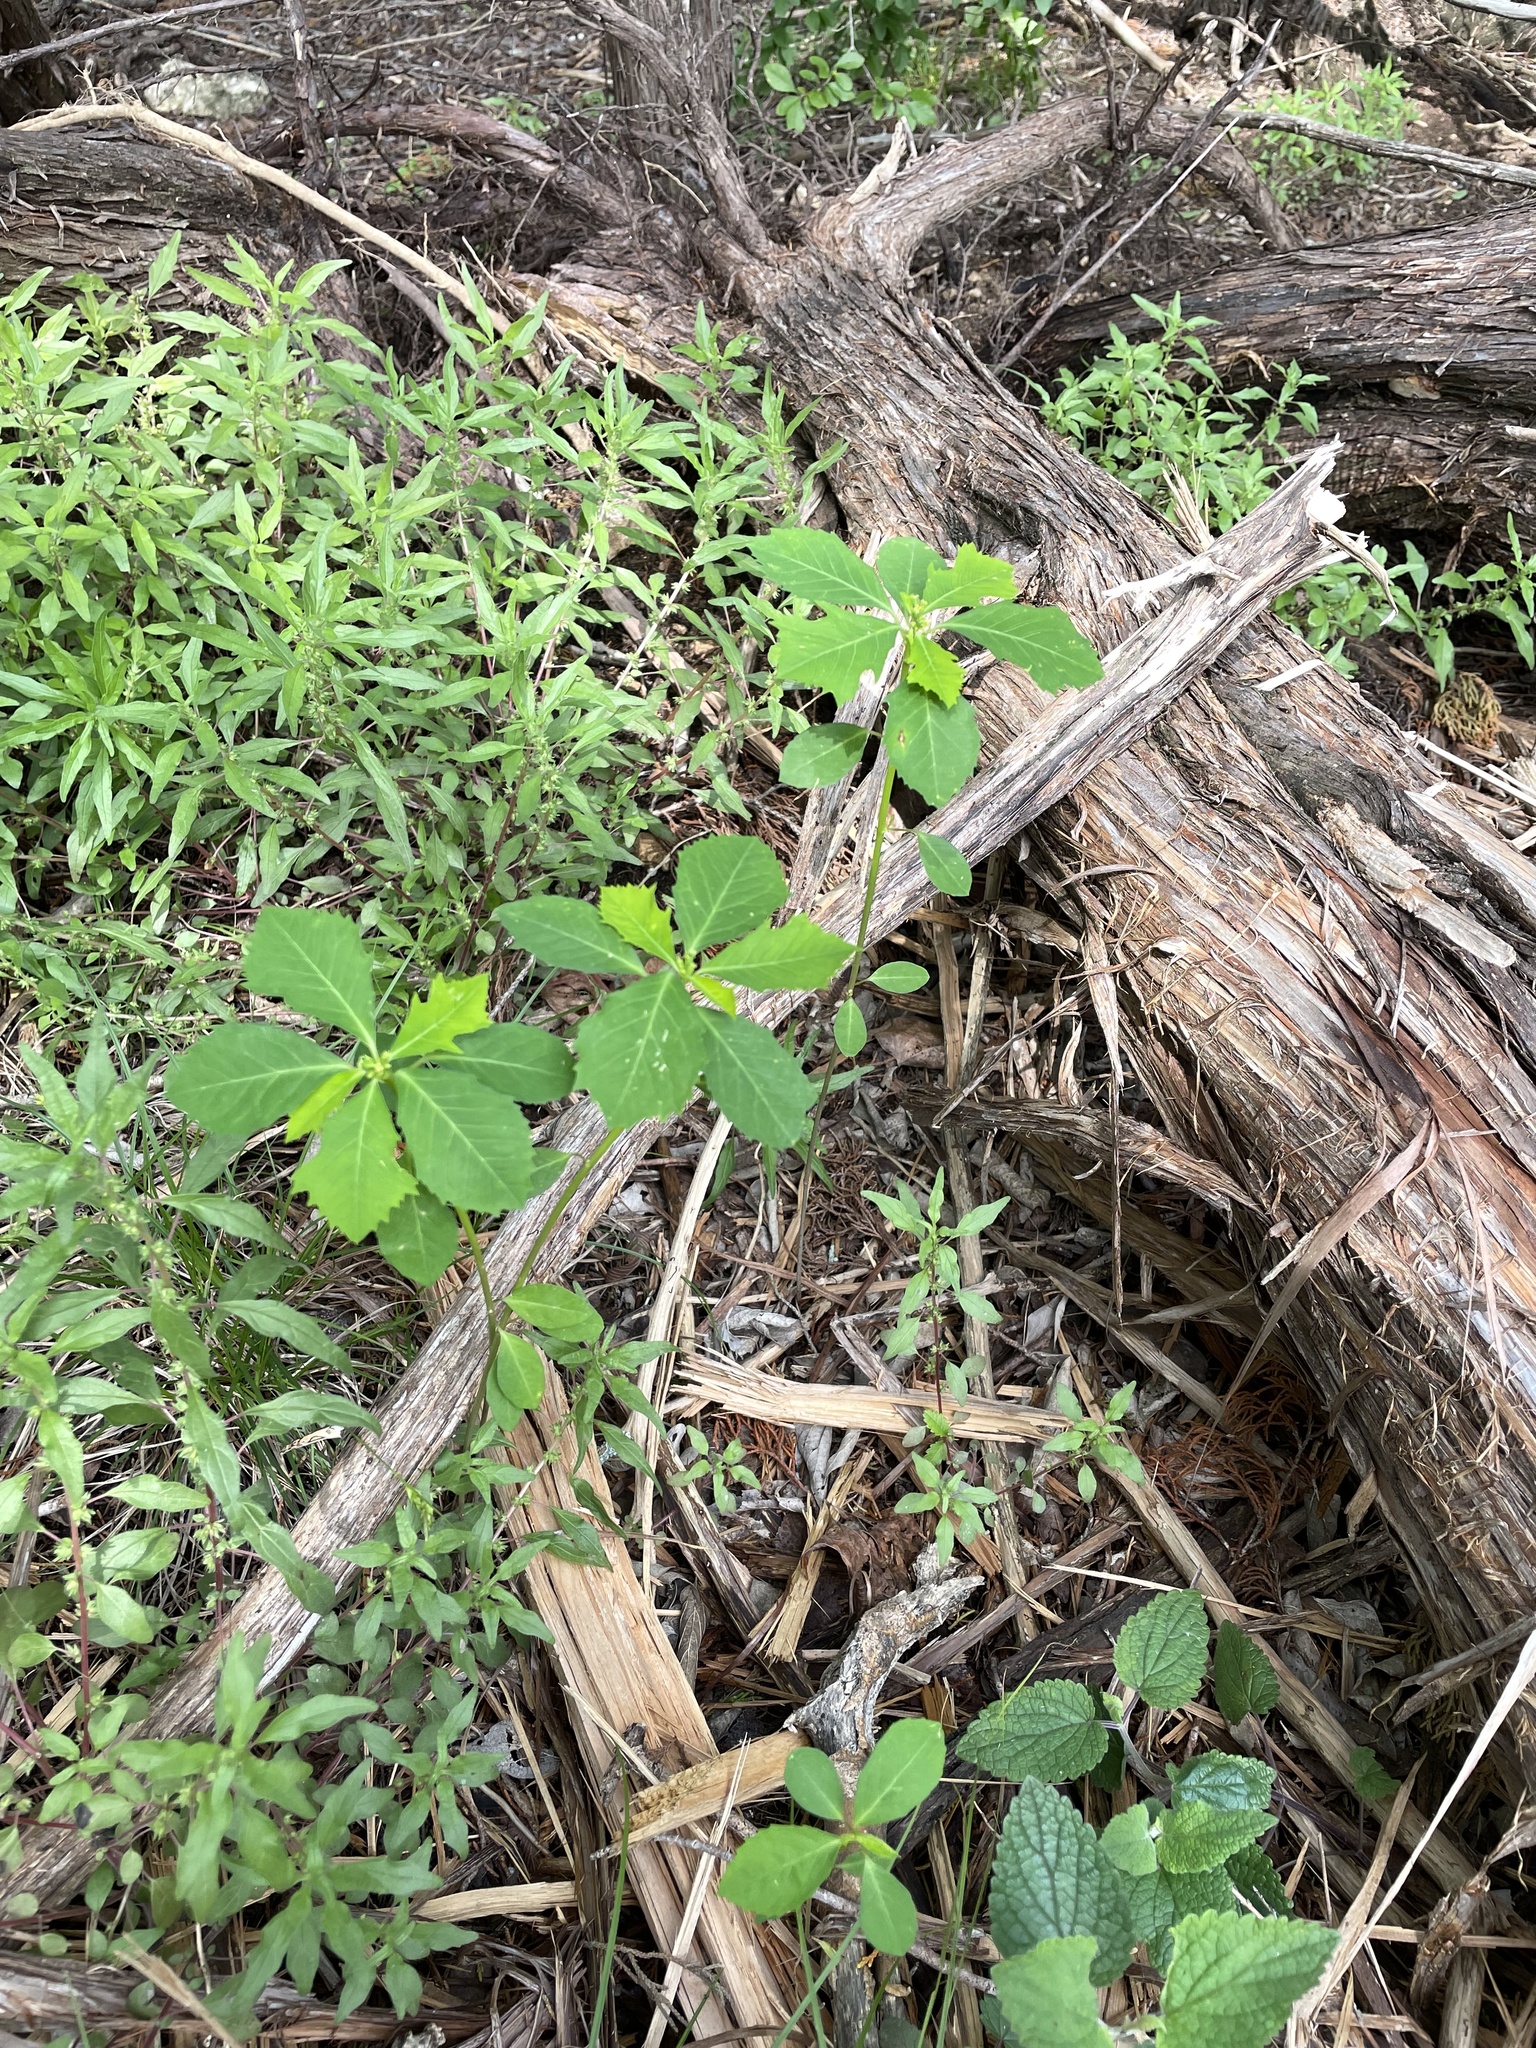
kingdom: Plantae
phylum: Tracheophyta
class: Magnoliopsida
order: Malpighiales
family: Euphorbiaceae
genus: Euphorbia
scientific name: Euphorbia heterophylla
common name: Mexican fireplant
